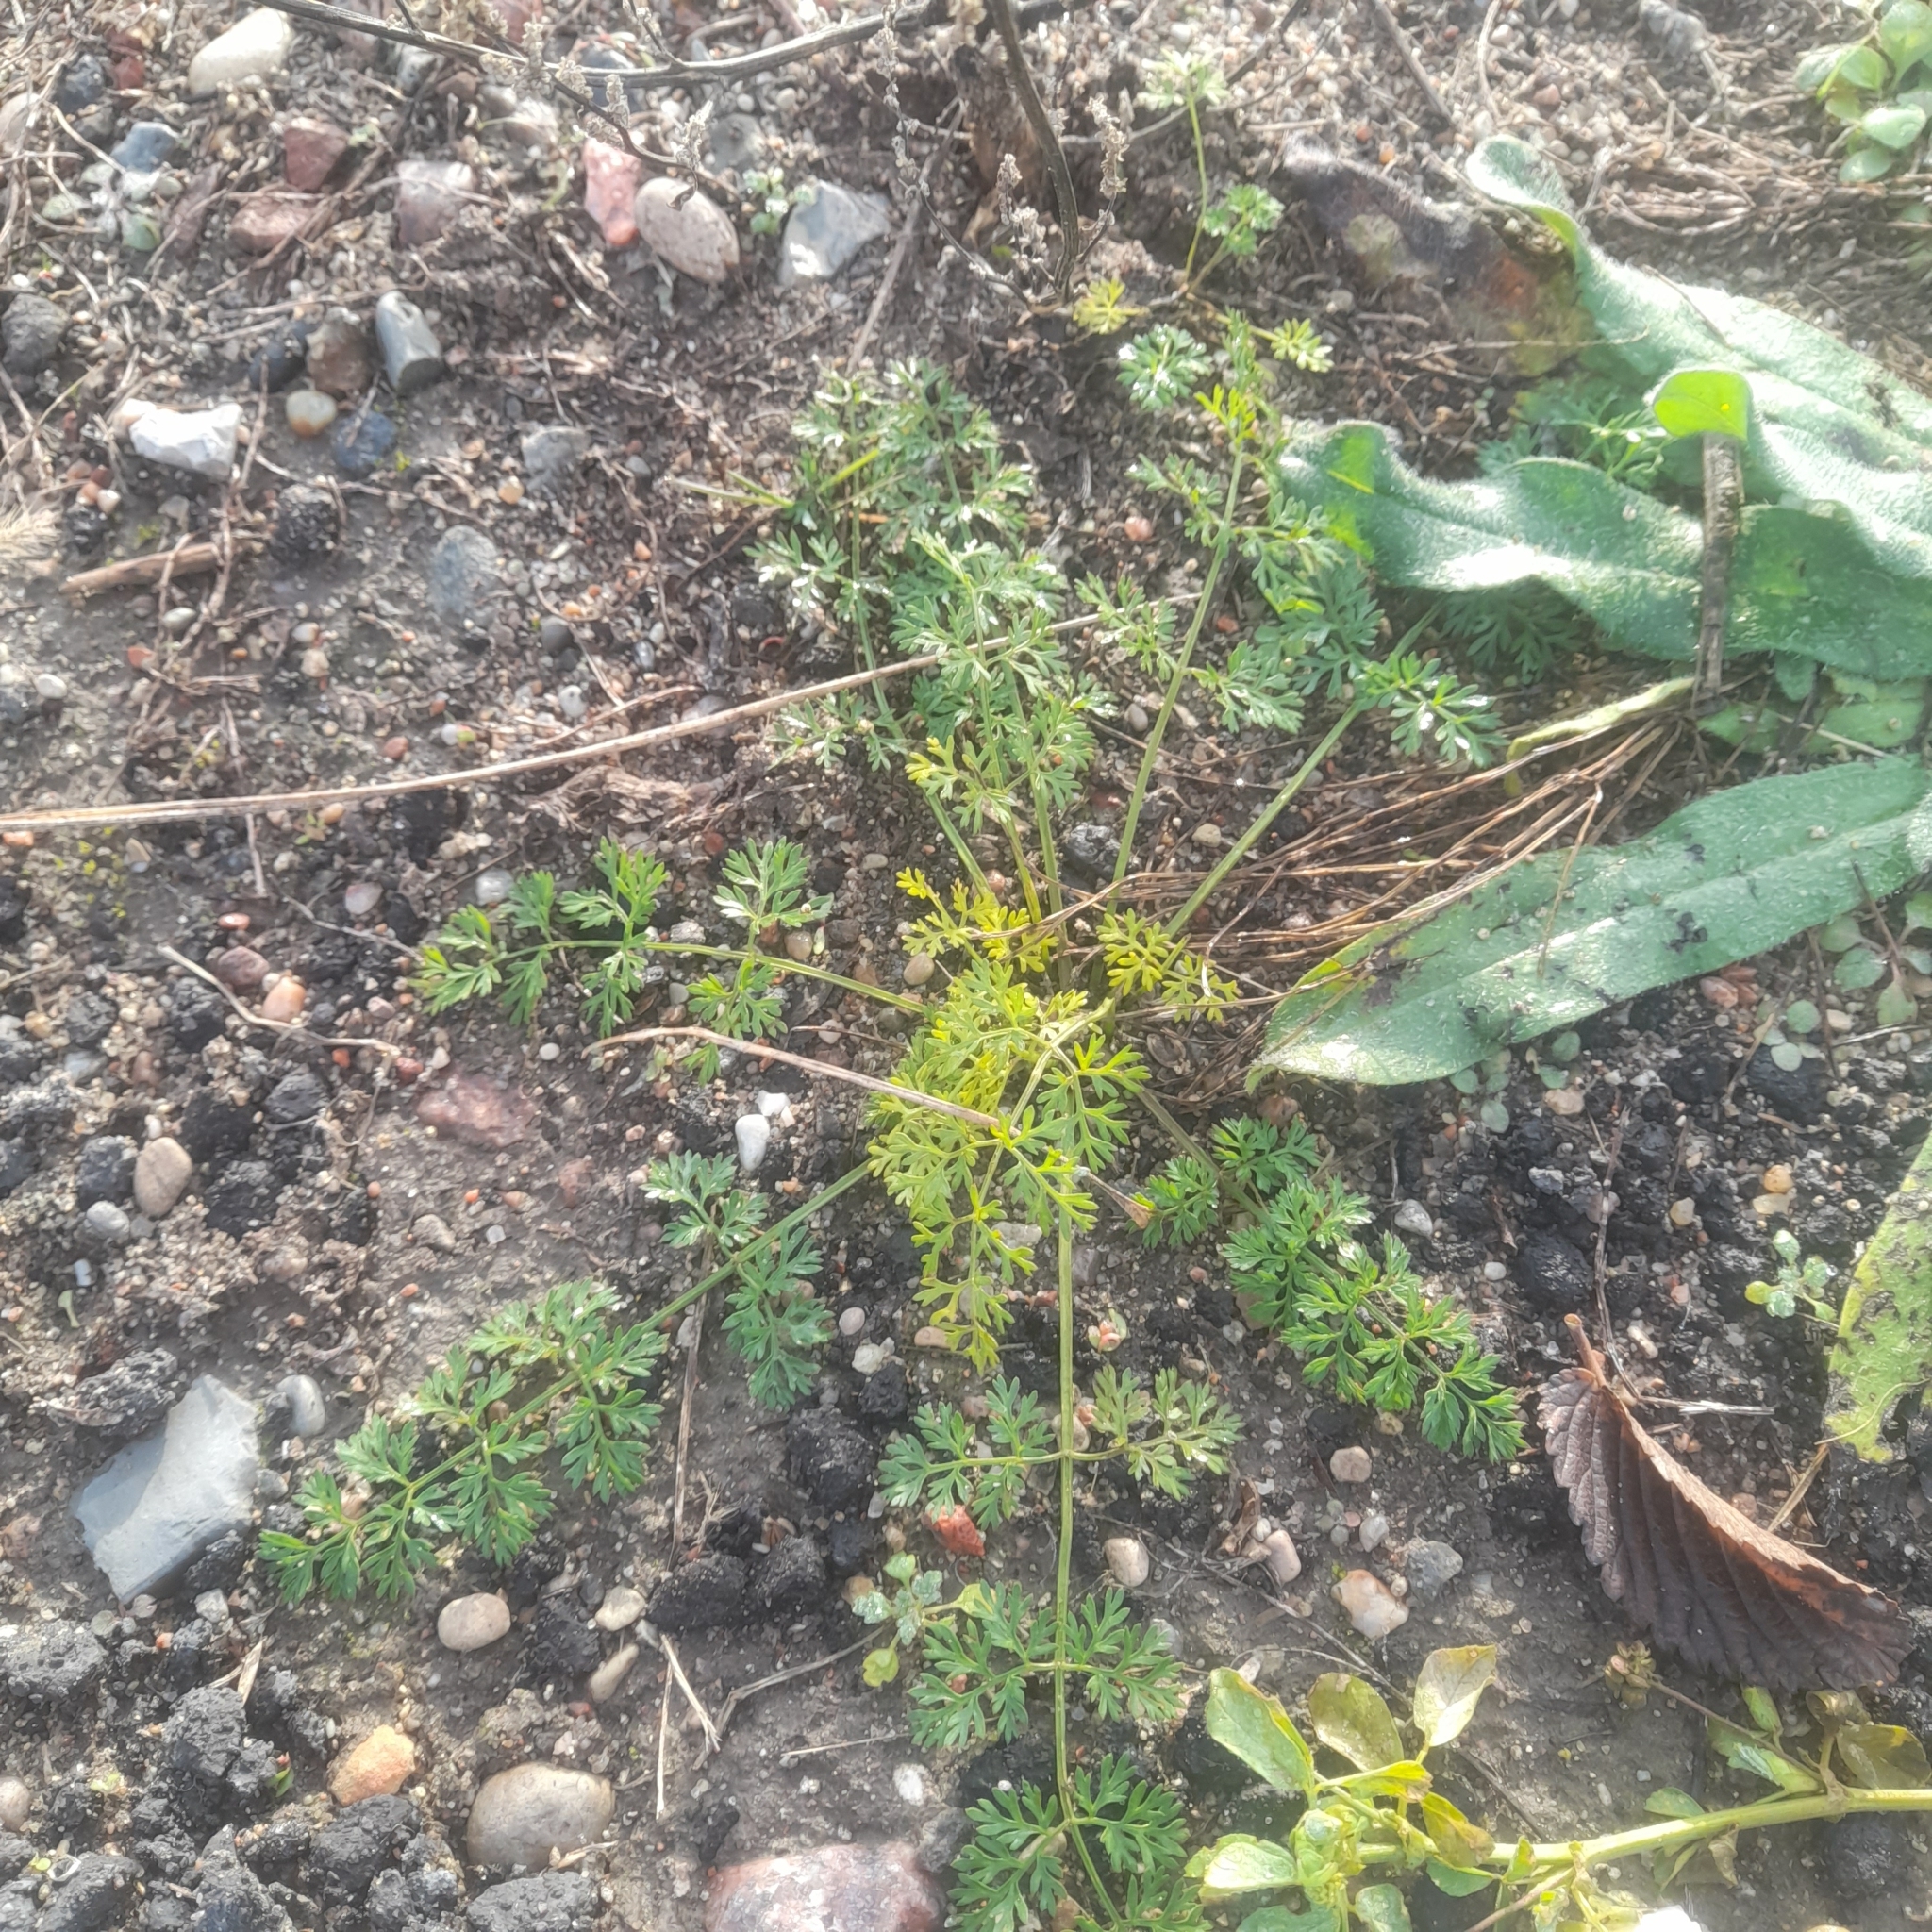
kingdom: Plantae
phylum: Tracheophyta
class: Magnoliopsida
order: Apiales
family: Apiaceae
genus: Daucus
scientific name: Daucus carota
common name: Wild carrot
